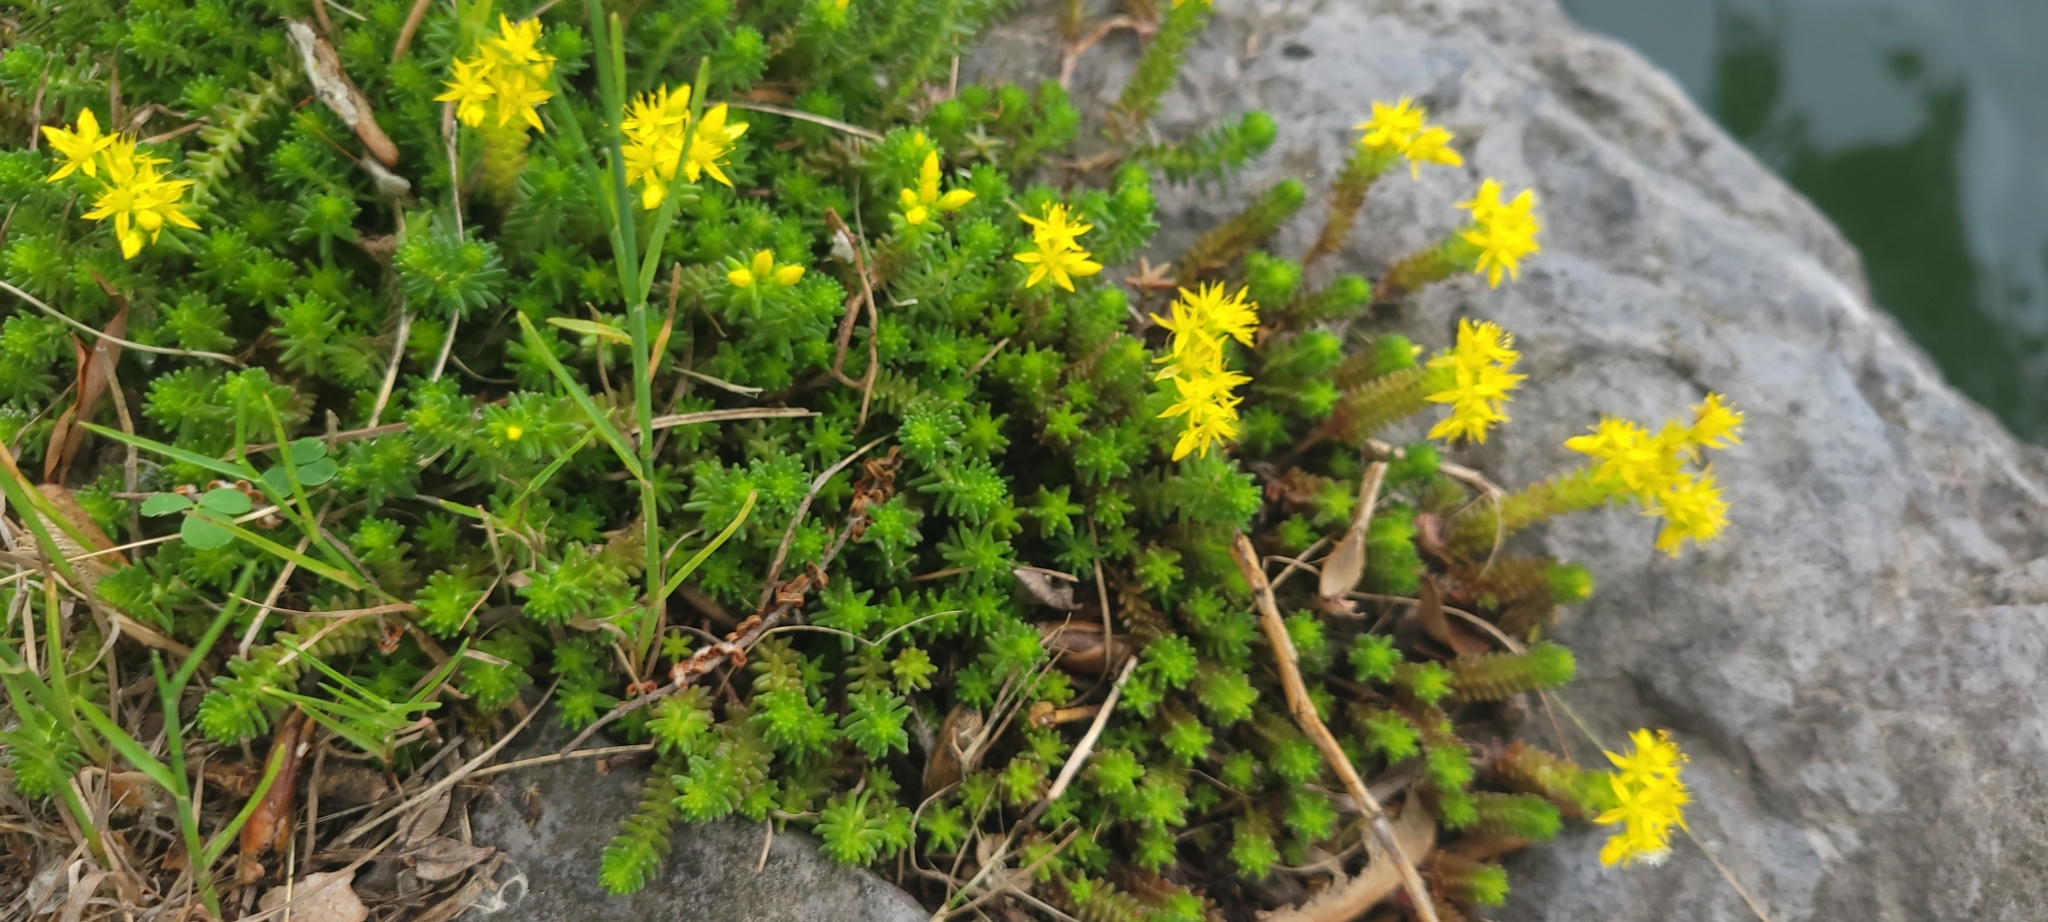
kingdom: Plantae
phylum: Tracheophyta
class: Magnoliopsida
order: Saxifragales
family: Crassulaceae
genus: Sedum
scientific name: Sedum sexangulare
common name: Tasteless stonecrop
